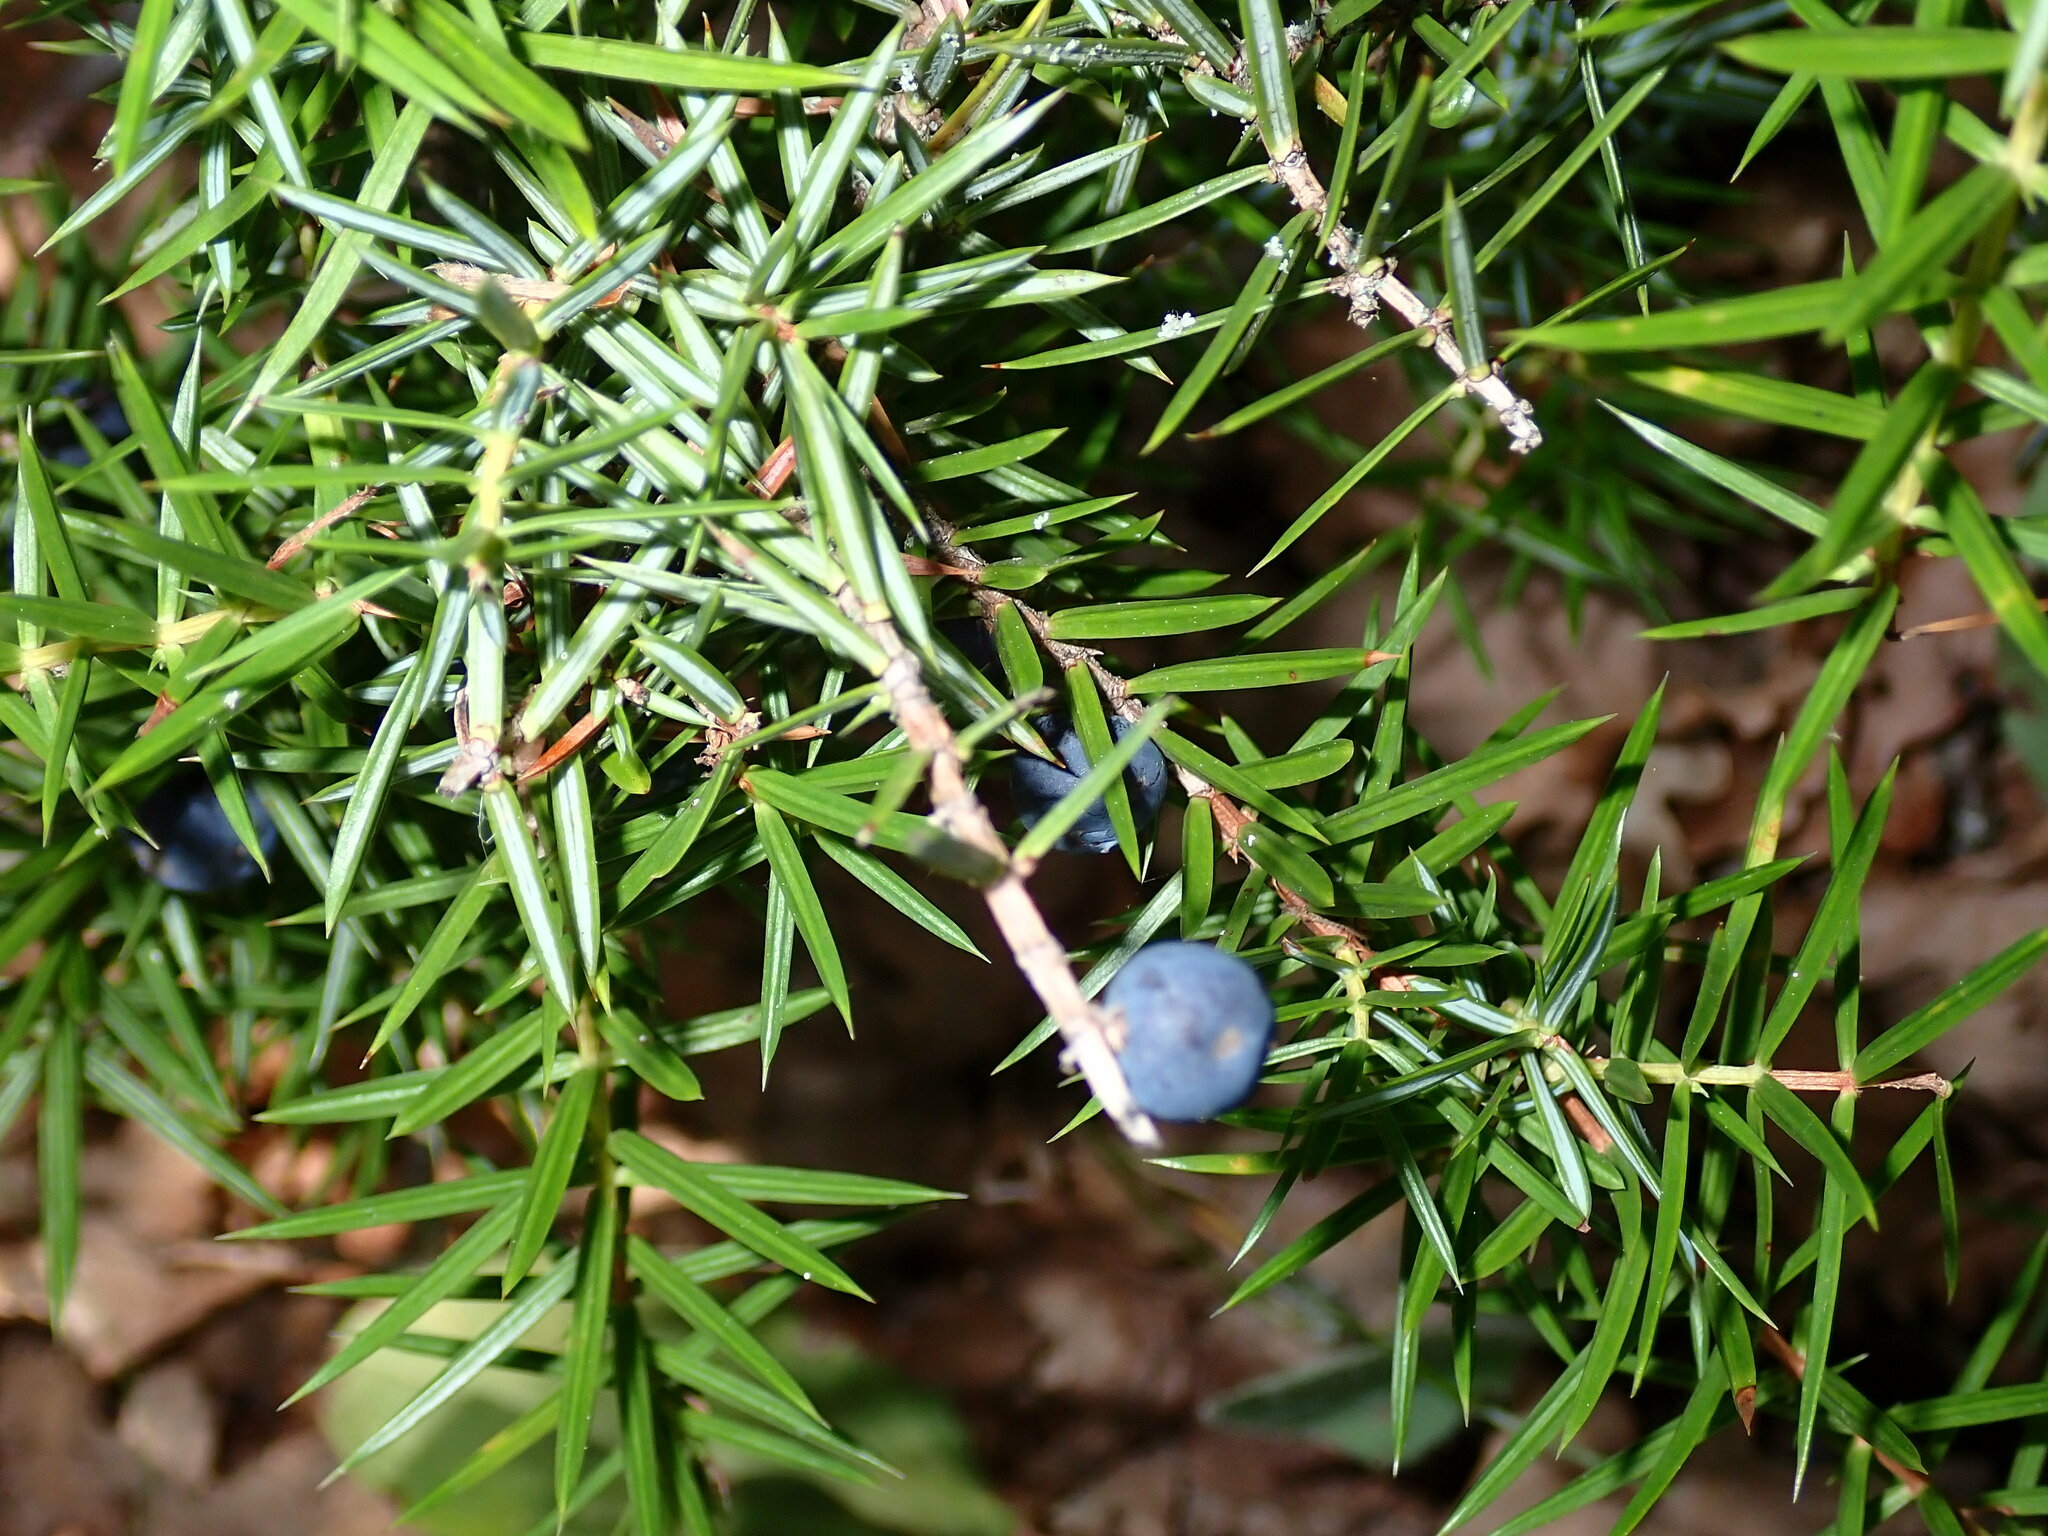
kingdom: Plantae
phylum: Tracheophyta
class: Pinopsida
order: Pinales
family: Cupressaceae
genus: Juniperus
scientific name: Juniperus communis
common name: Common juniper
